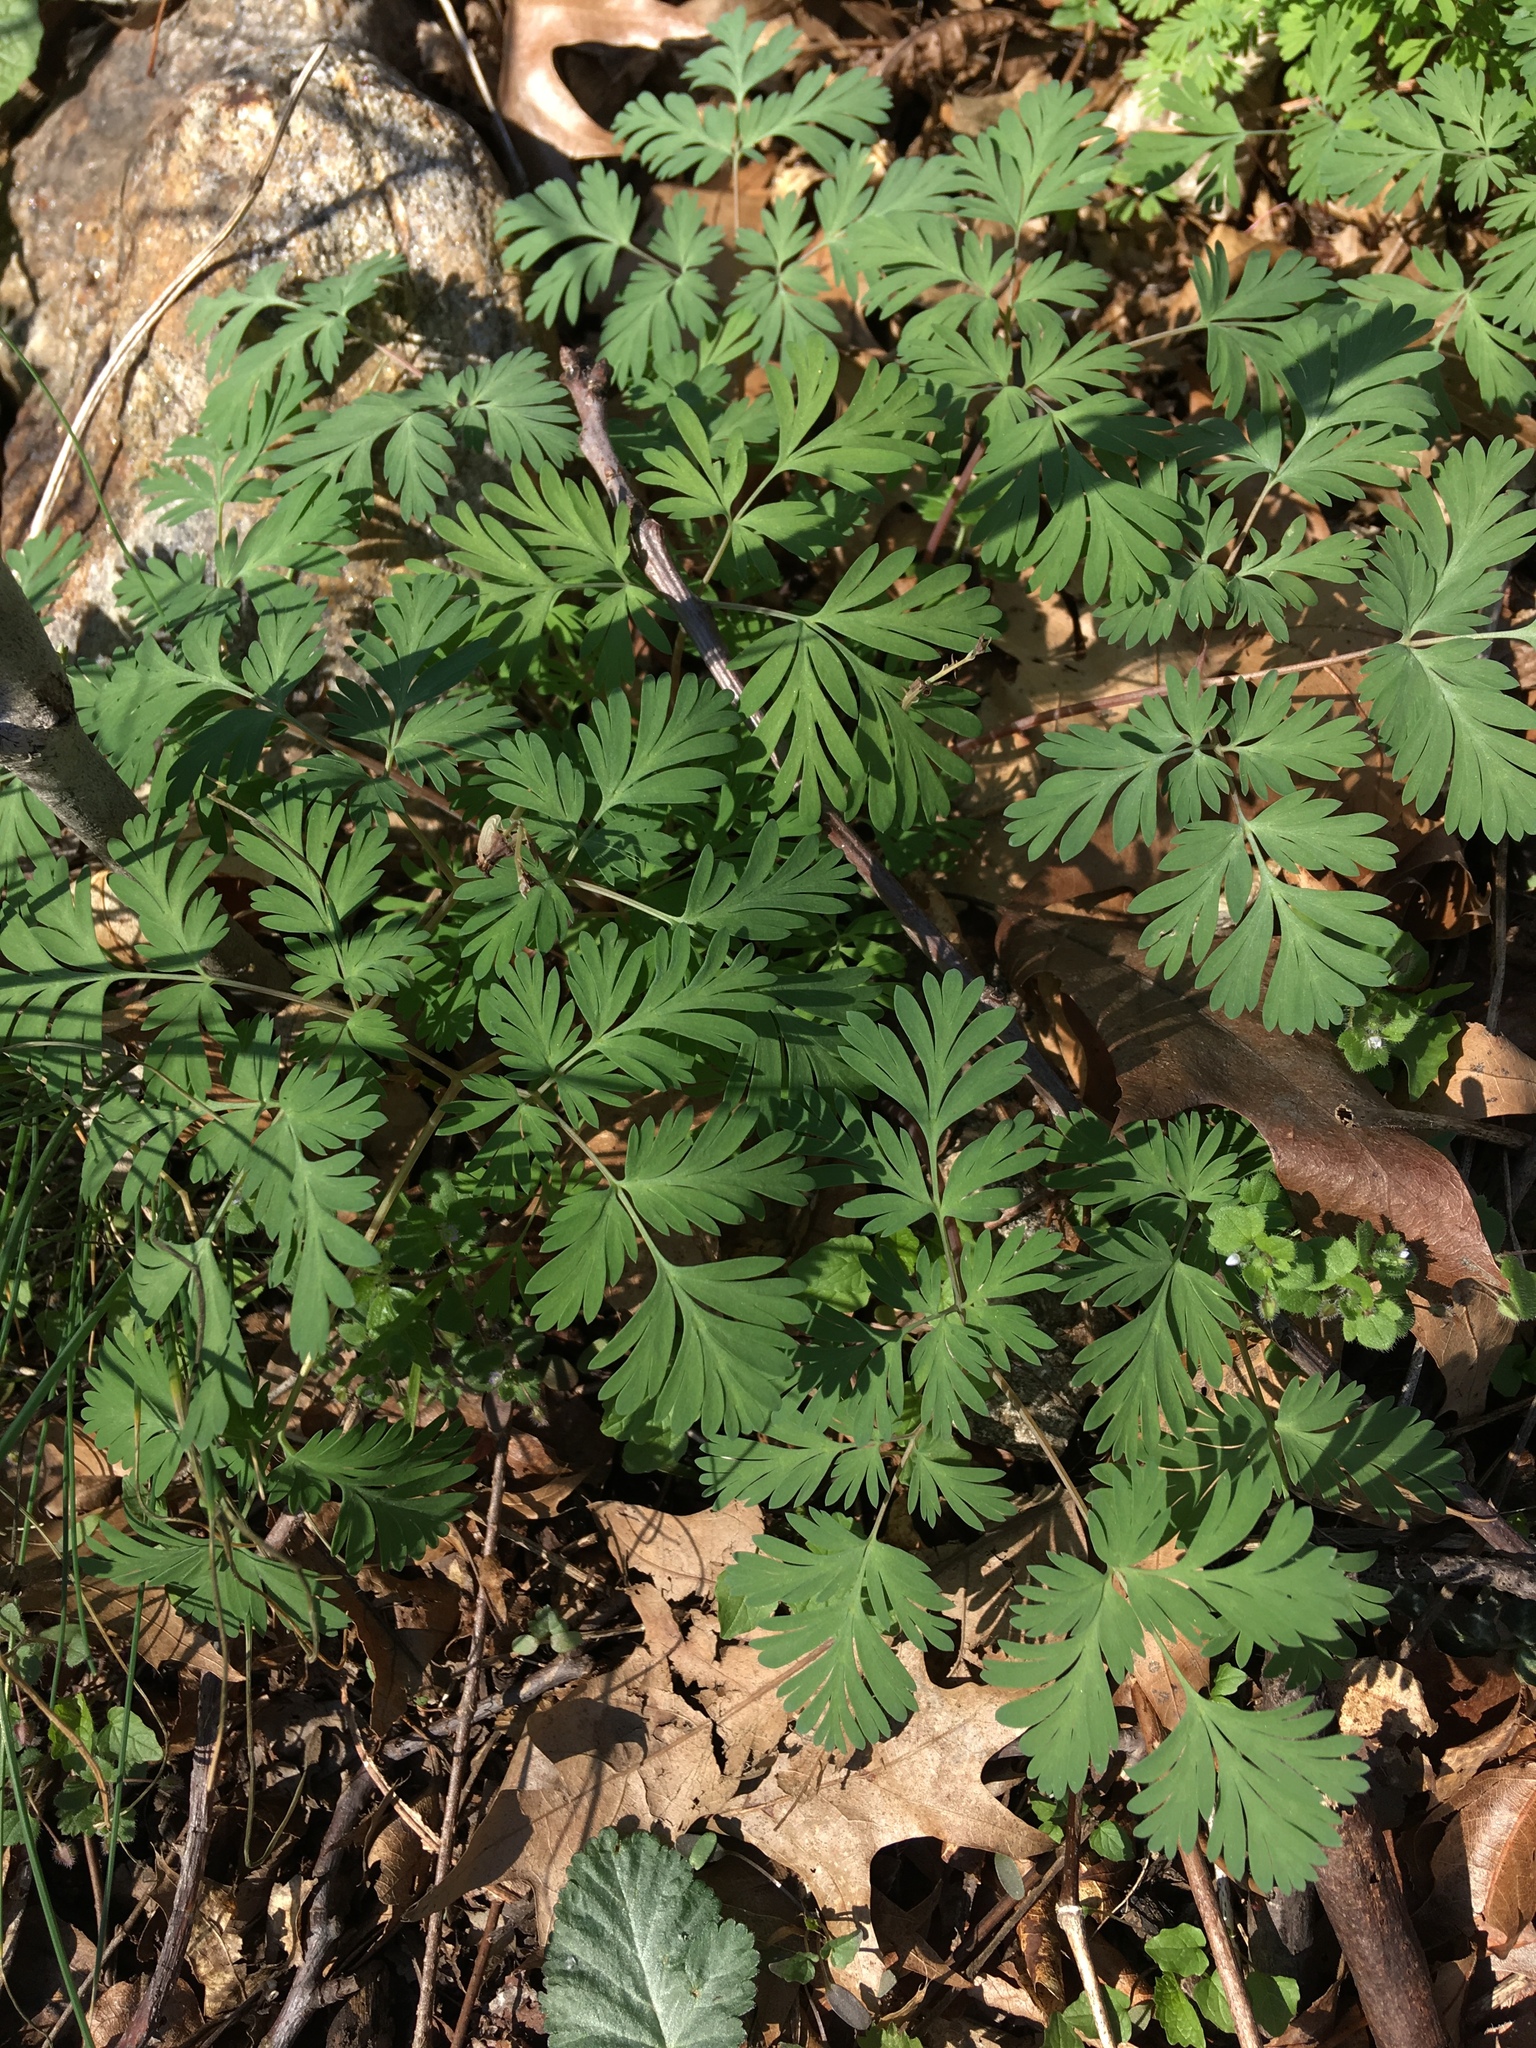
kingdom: Plantae
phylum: Tracheophyta
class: Magnoliopsida
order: Ranunculales
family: Papaveraceae
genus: Dicentra
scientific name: Dicentra cucullaria
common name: Dutchman's breeches
